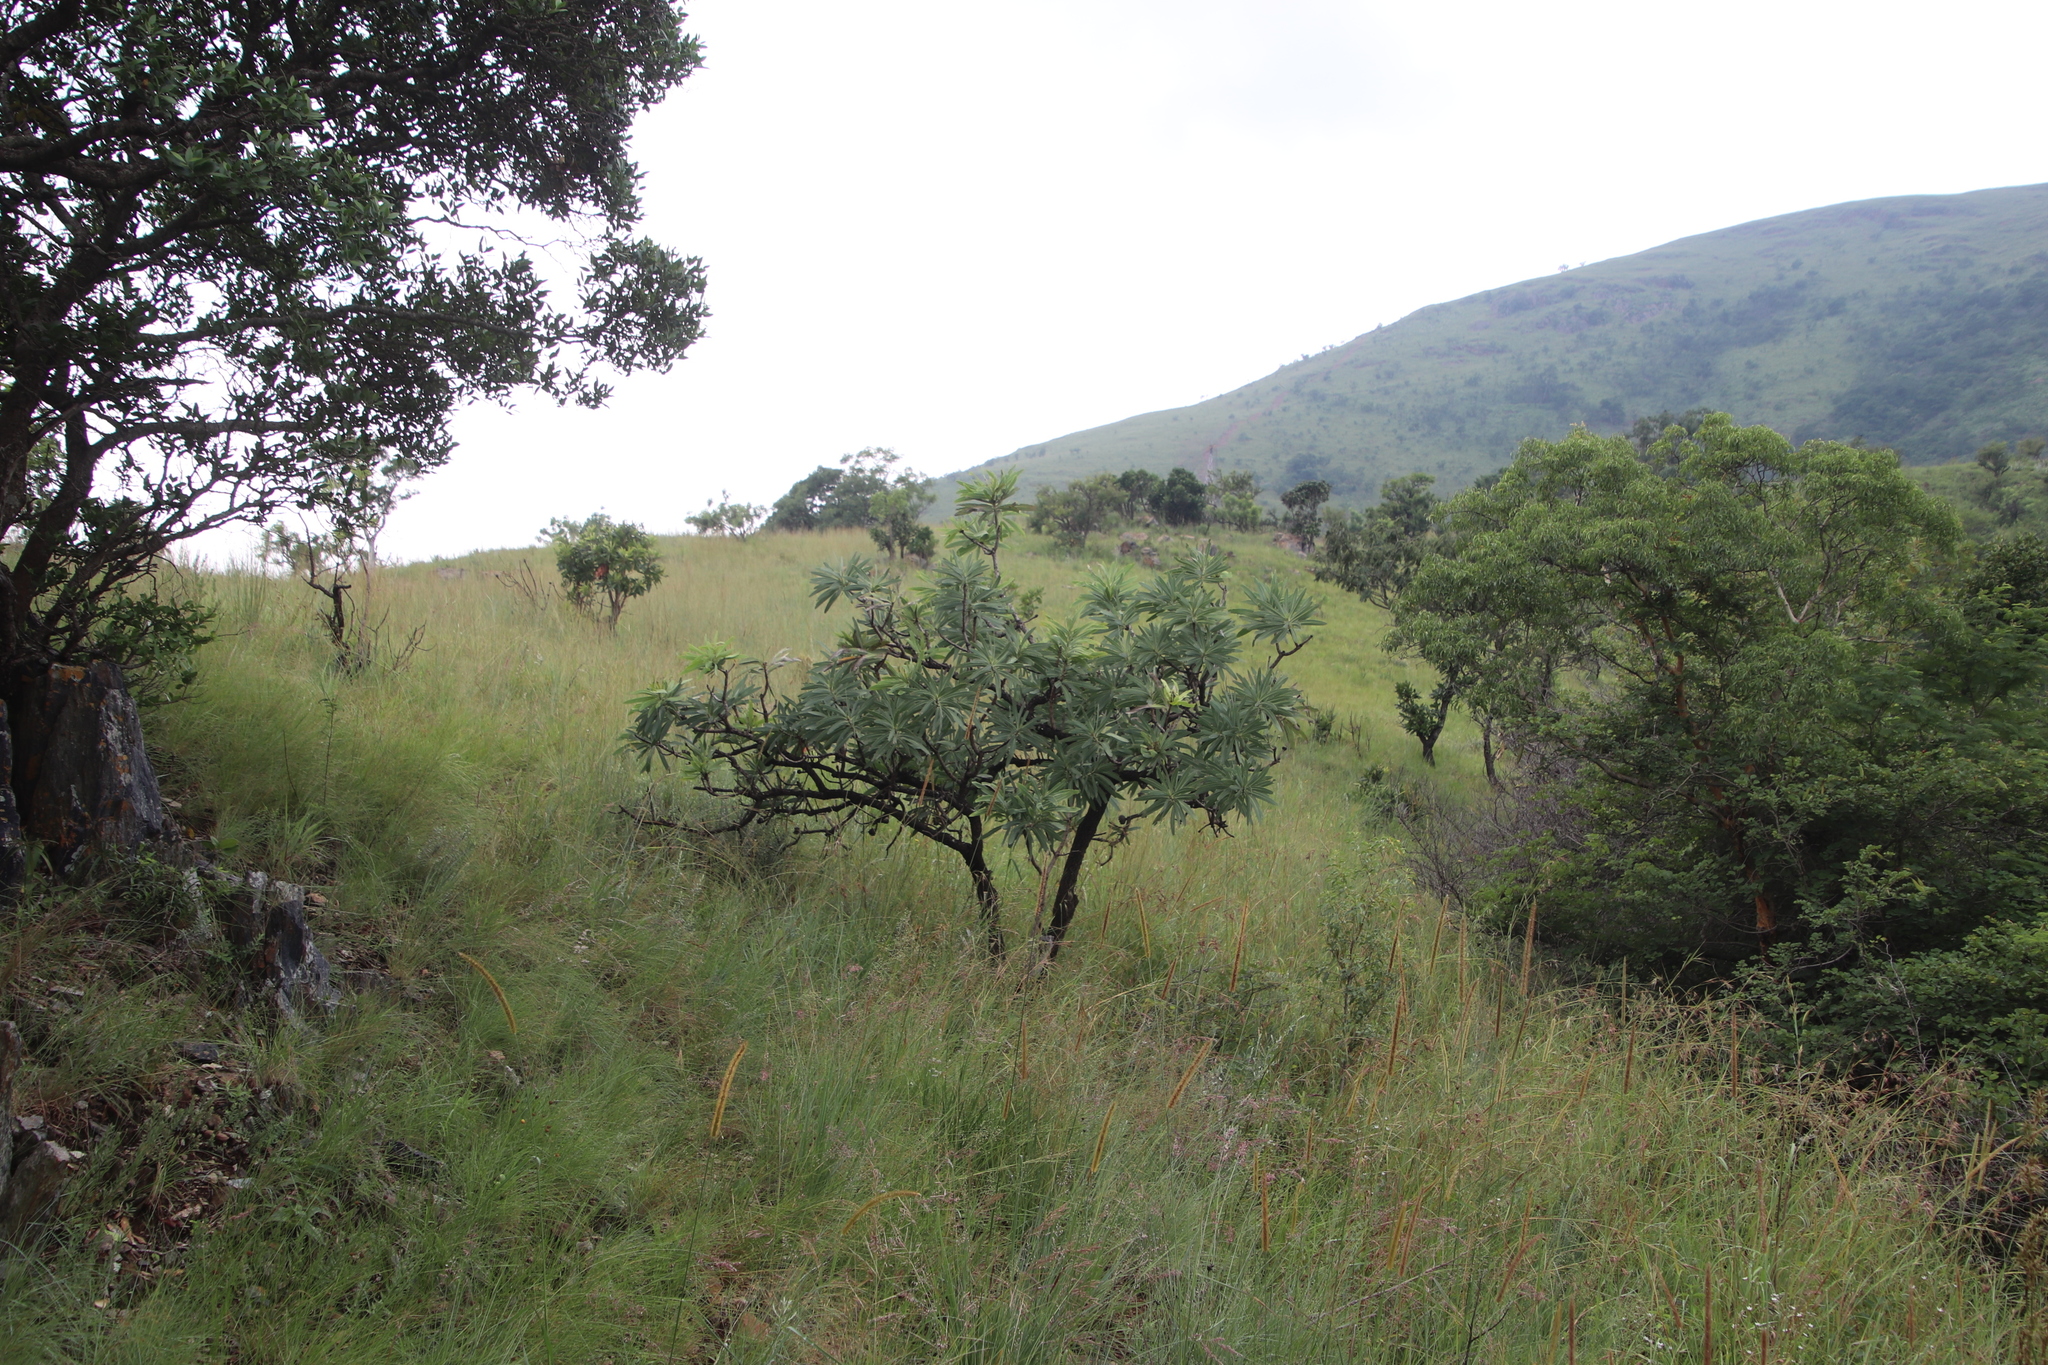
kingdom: Plantae
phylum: Tracheophyta
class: Magnoliopsida
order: Proteales
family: Proteaceae
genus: Protea
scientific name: Protea gaguedi
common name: African protea
